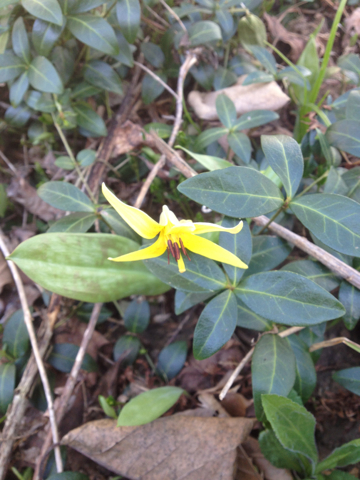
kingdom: Plantae
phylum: Tracheophyta
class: Liliopsida
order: Liliales
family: Liliaceae
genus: Erythronium
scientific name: Erythronium americanum
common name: Yellow adder's-tongue
